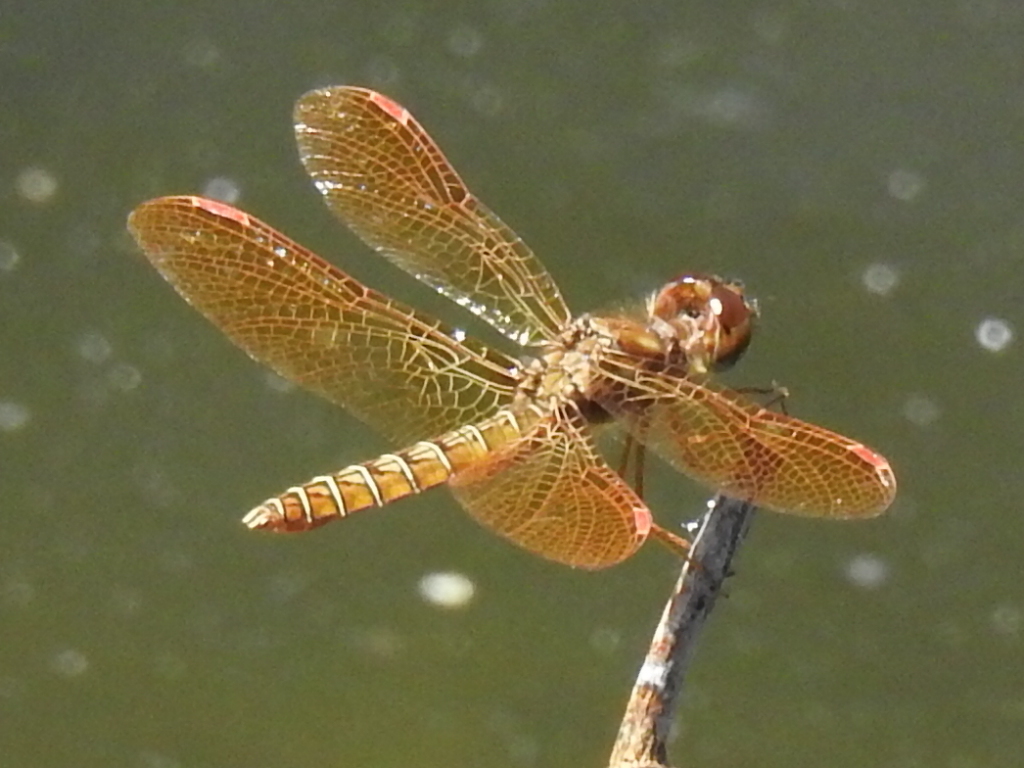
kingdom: Animalia
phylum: Arthropoda
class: Insecta
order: Odonata
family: Libellulidae
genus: Perithemis
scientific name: Perithemis tenera
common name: Eastern amberwing
